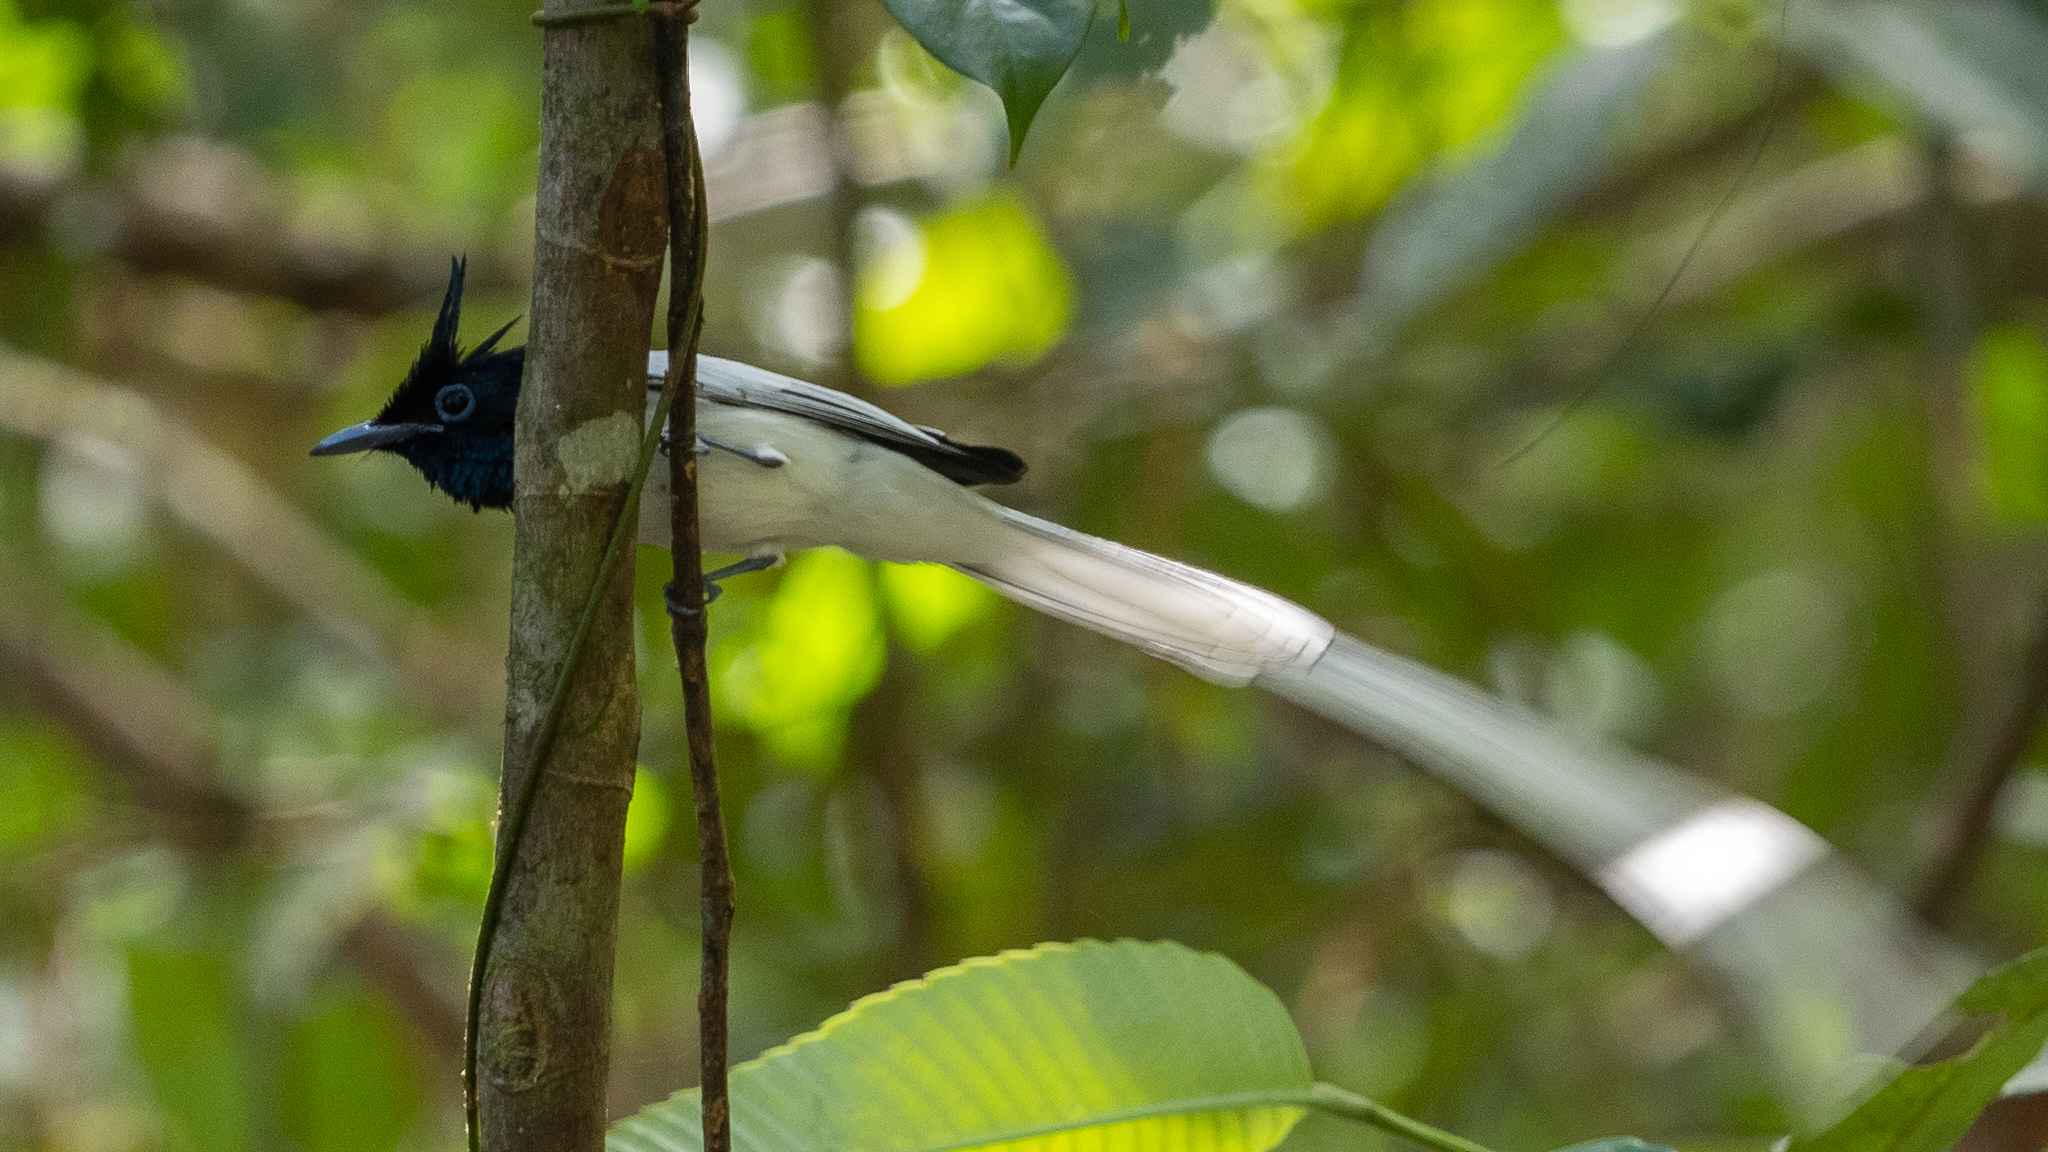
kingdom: Animalia
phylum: Chordata
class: Aves
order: Passeriformes
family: Monarchidae
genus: Terpsiphone
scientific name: Terpsiphone paradisi
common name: Indian paradise flycatcher
